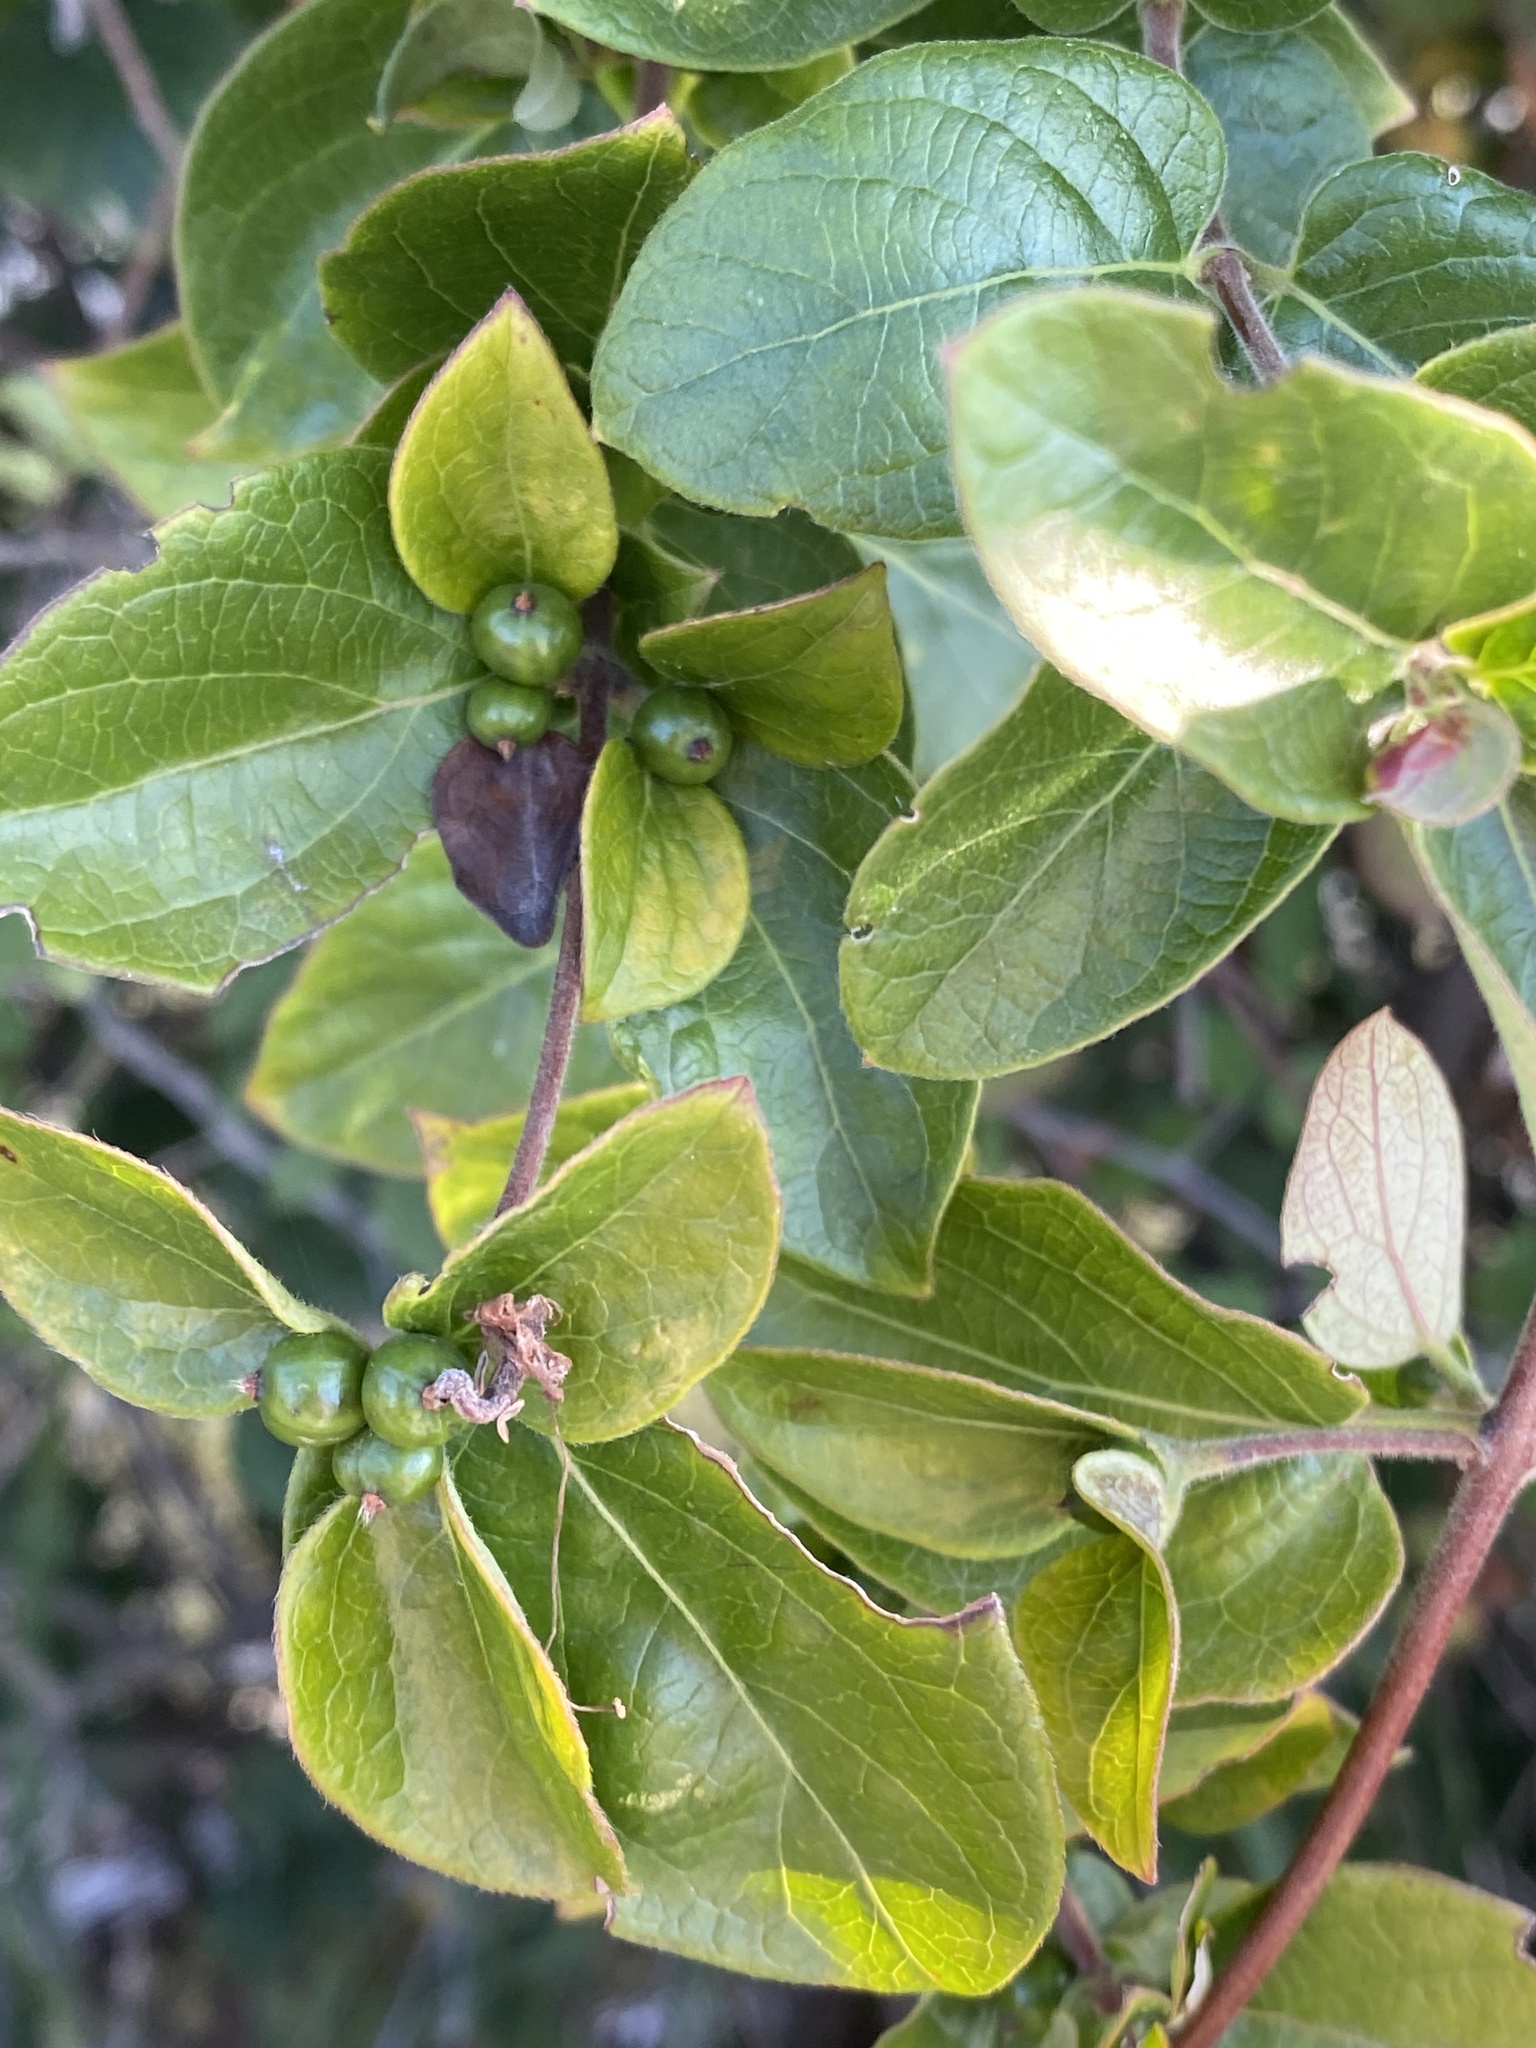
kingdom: Plantae
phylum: Tracheophyta
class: Magnoliopsida
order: Dipsacales
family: Caprifoliaceae
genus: Lonicera
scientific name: Lonicera japonica
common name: Japanese honeysuckle
